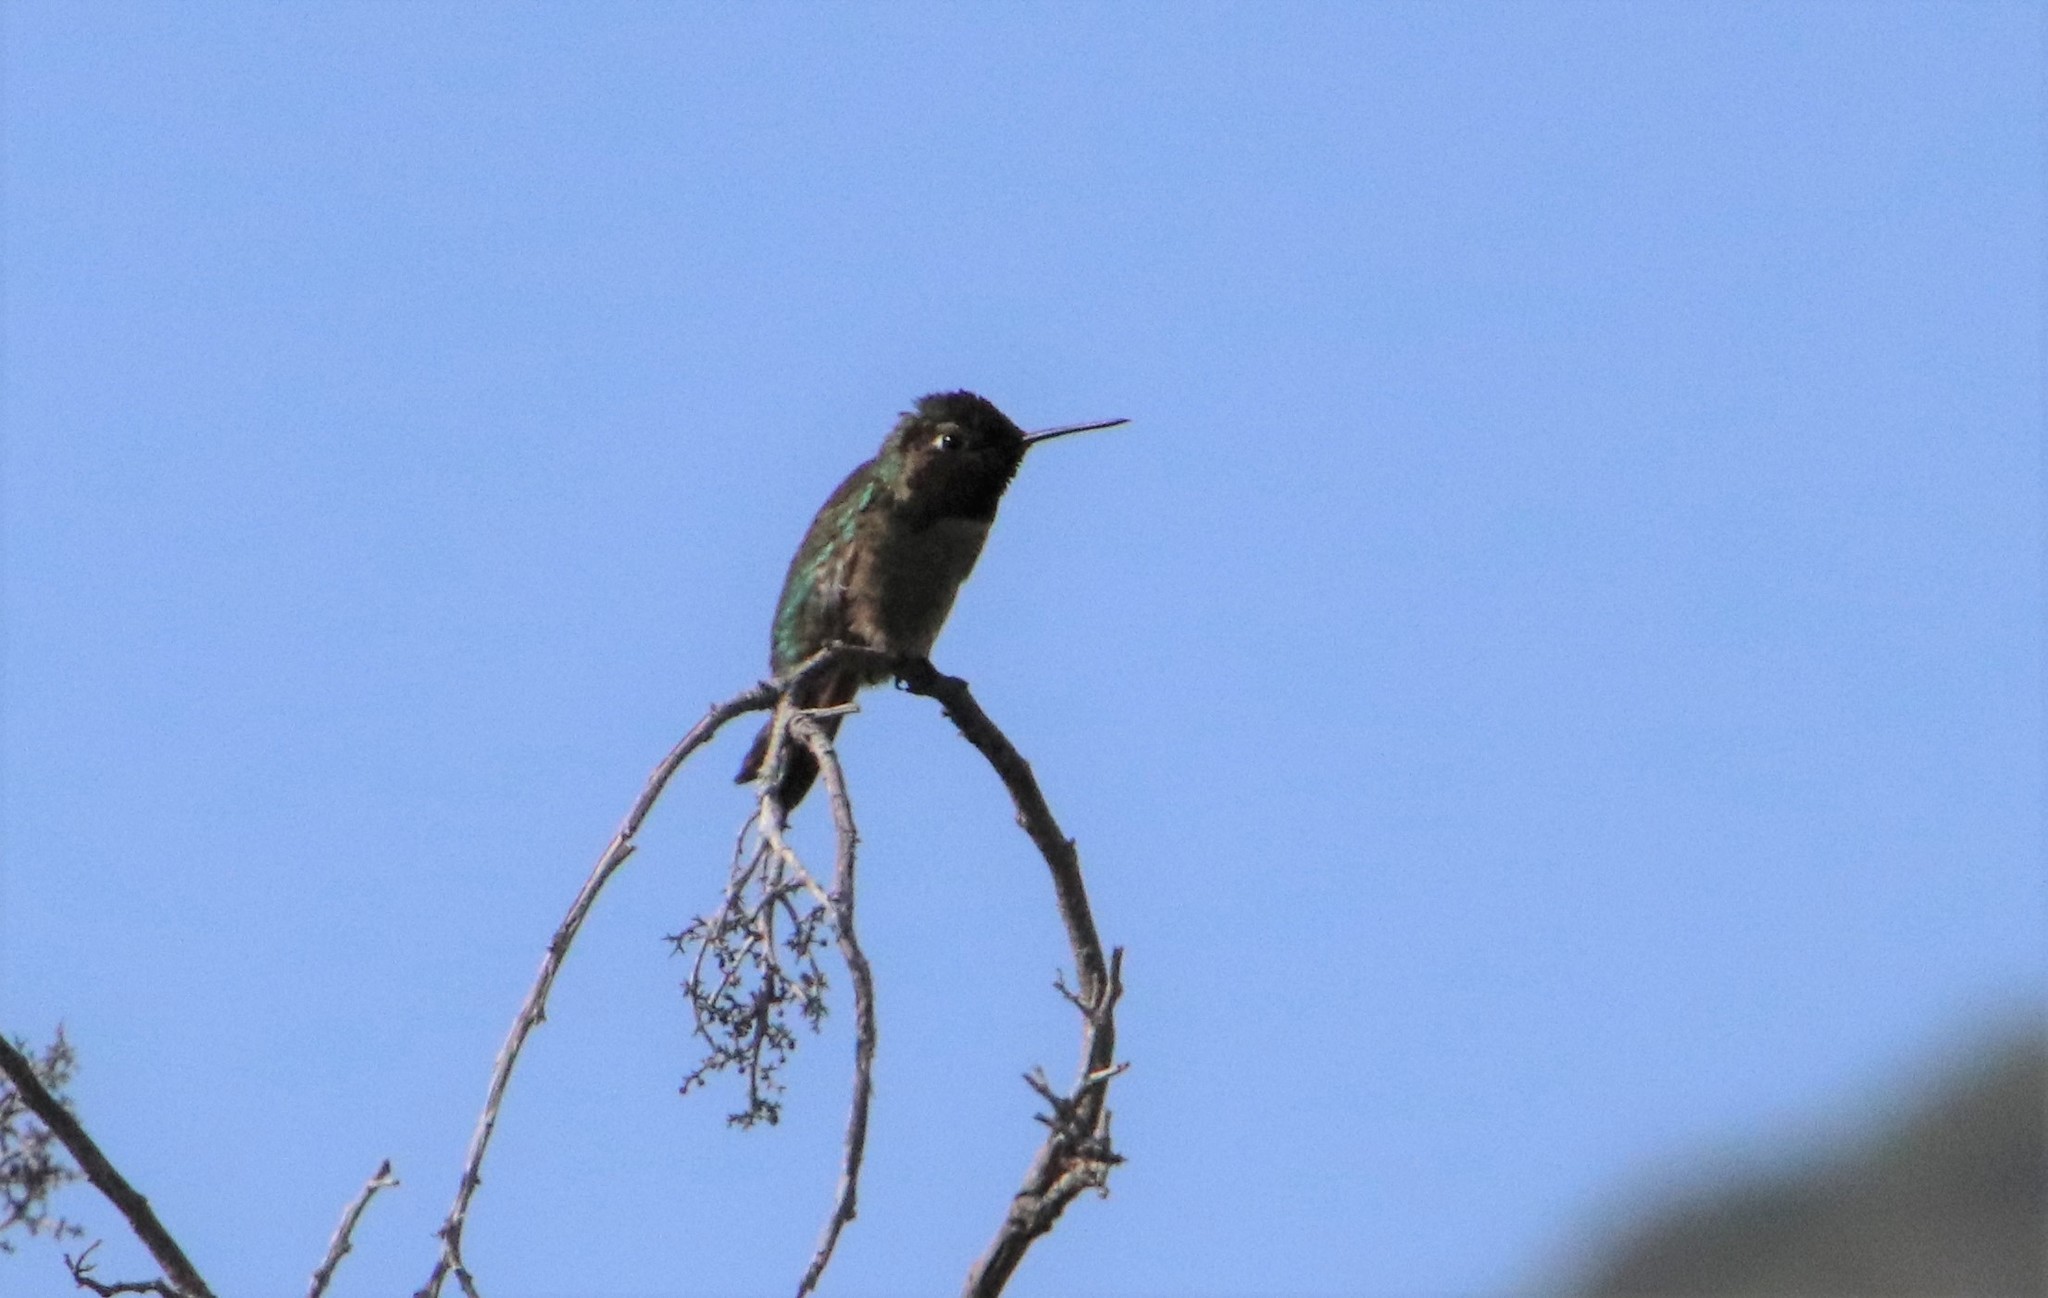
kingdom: Animalia
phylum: Chordata
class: Aves
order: Apodiformes
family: Trochilidae
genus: Calypte
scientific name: Calypte anna
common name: Anna's hummingbird
